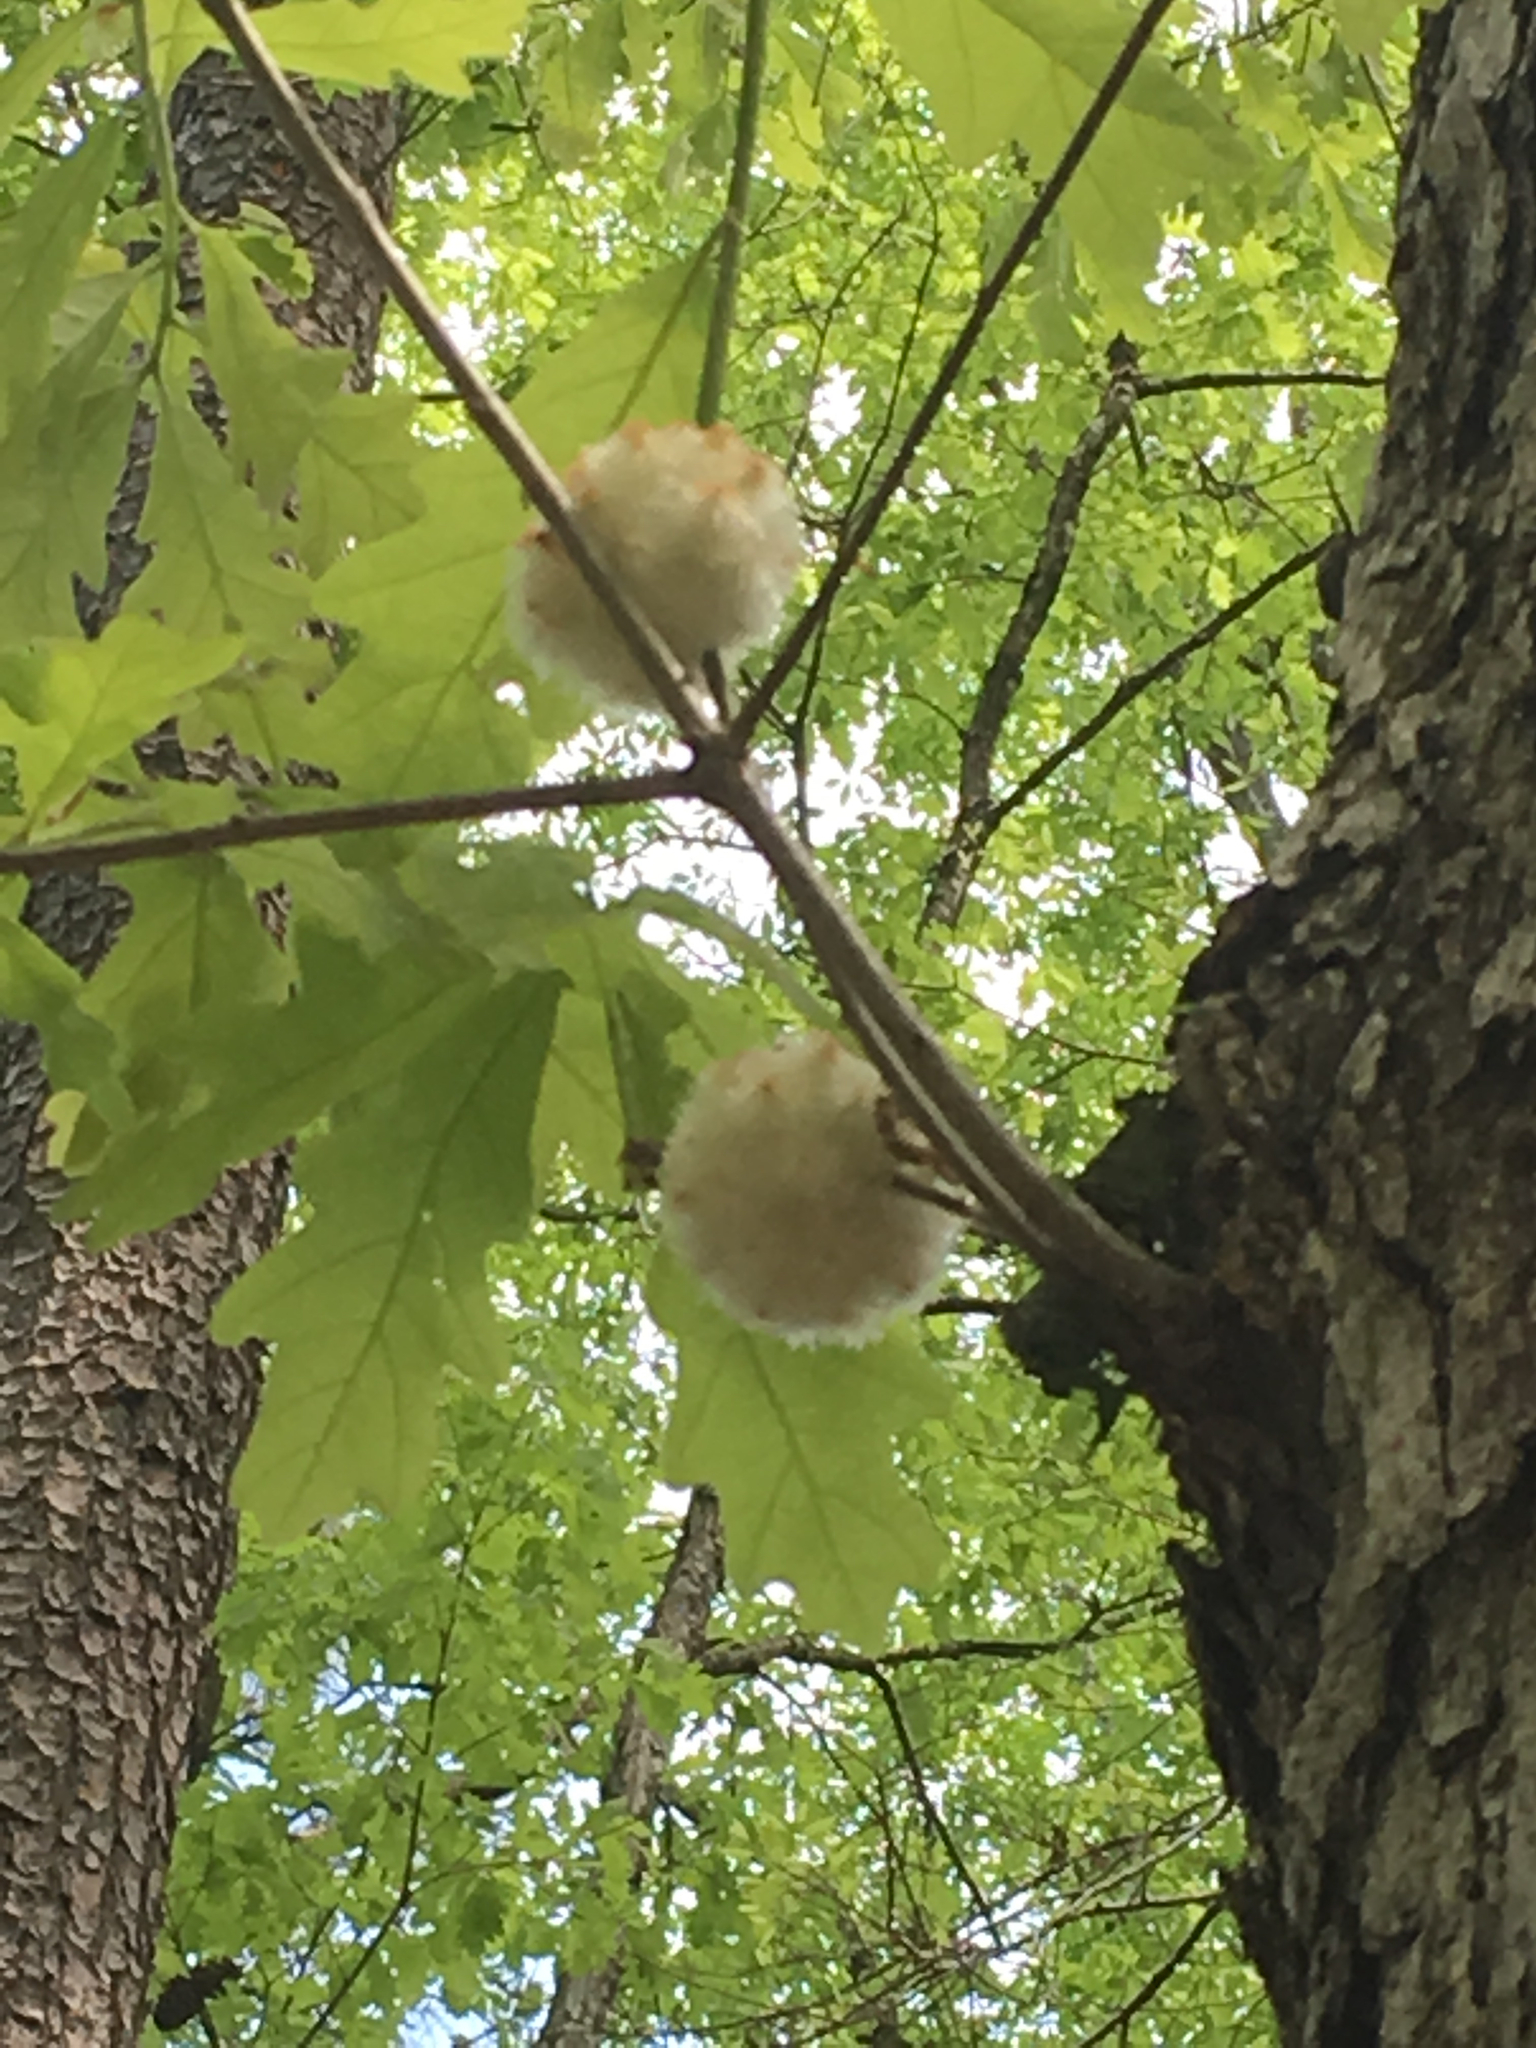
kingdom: Animalia
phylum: Arthropoda
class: Insecta
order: Hymenoptera
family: Cynipidae
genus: Callirhytis
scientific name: Callirhytis
